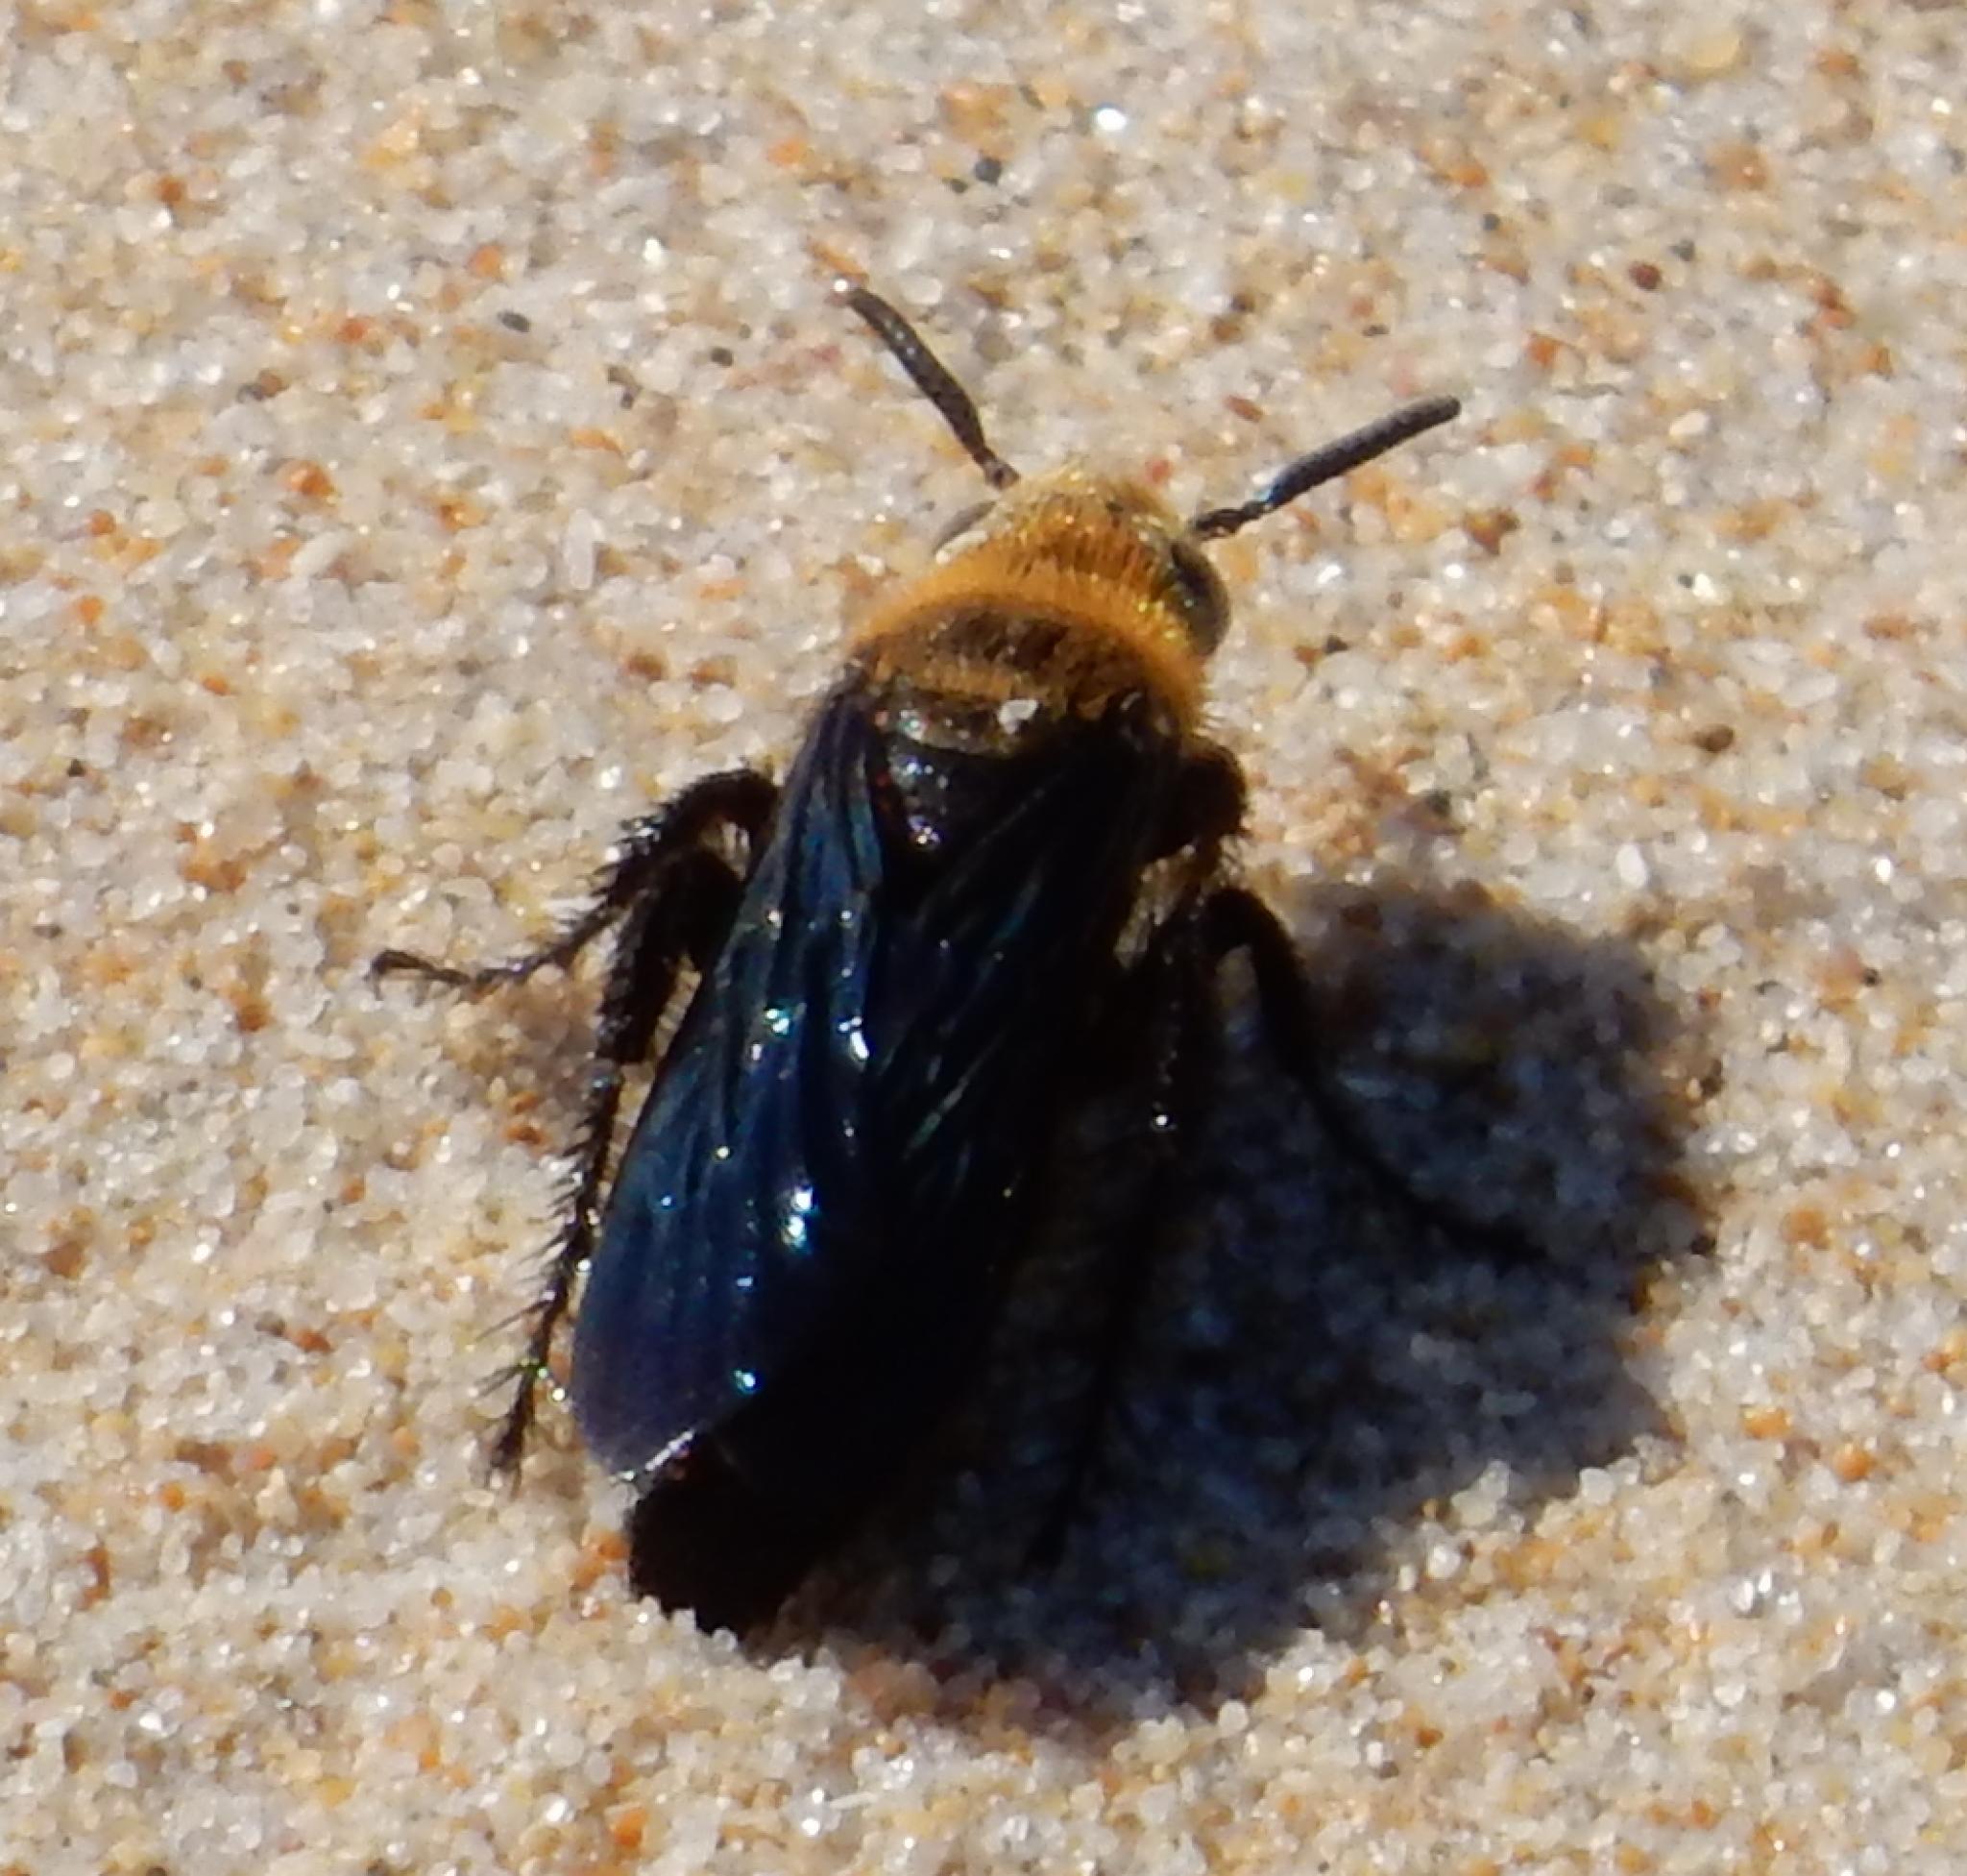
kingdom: Animalia
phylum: Arthropoda
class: Insecta
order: Hymenoptera
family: Scoliidae
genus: Campsomeriella
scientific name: Campsomeriella caelebs
